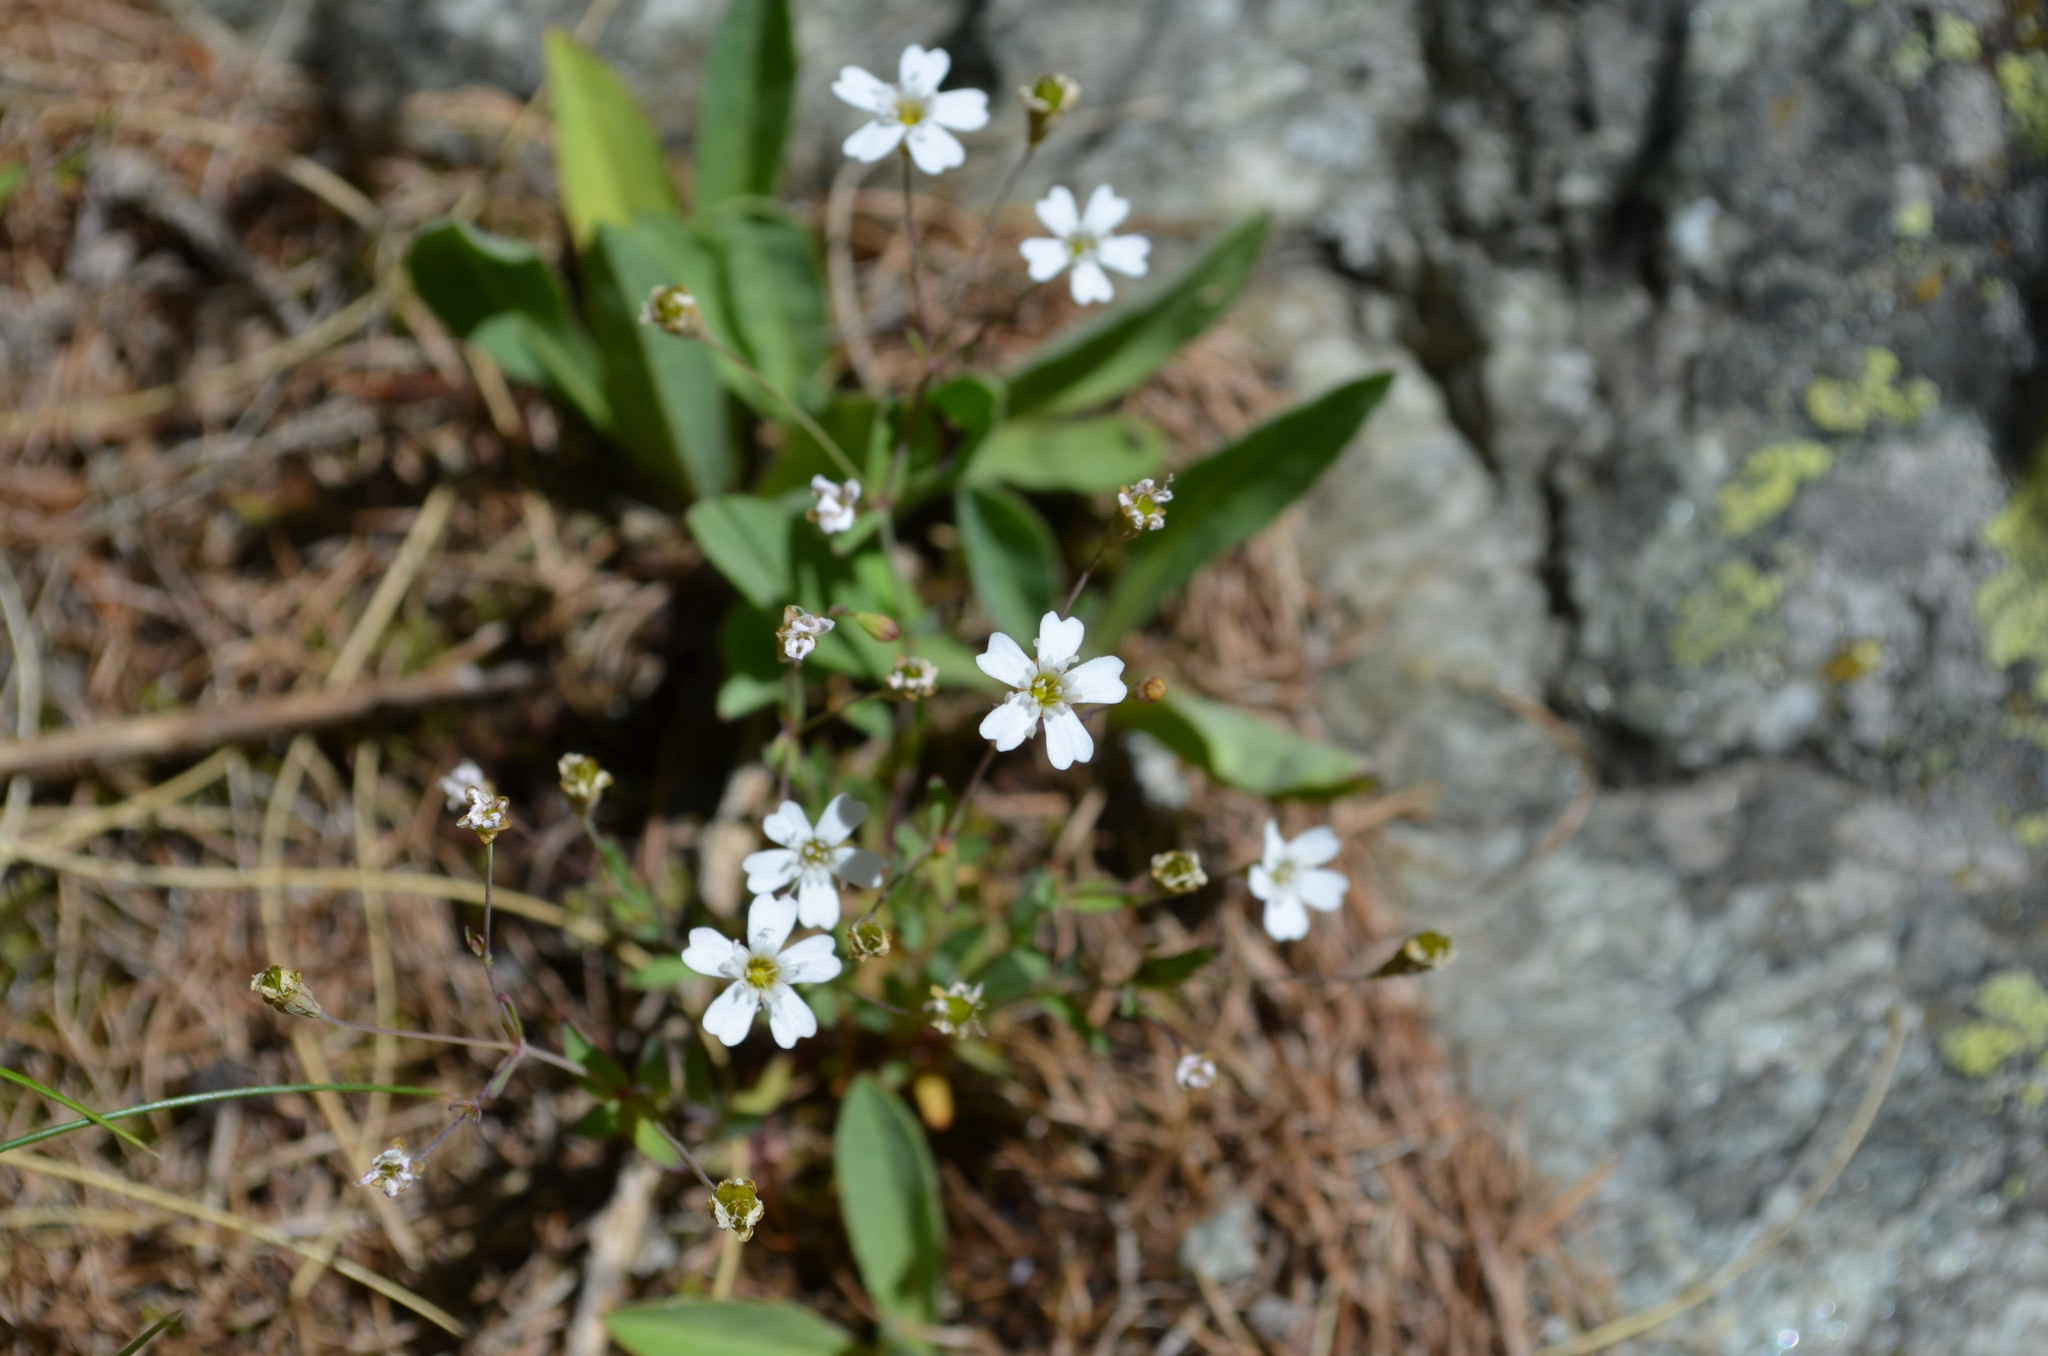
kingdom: Plantae
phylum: Tracheophyta
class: Magnoliopsida
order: Caryophyllales
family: Caryophyllaceae
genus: Atocion
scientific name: Atocion rupestre
